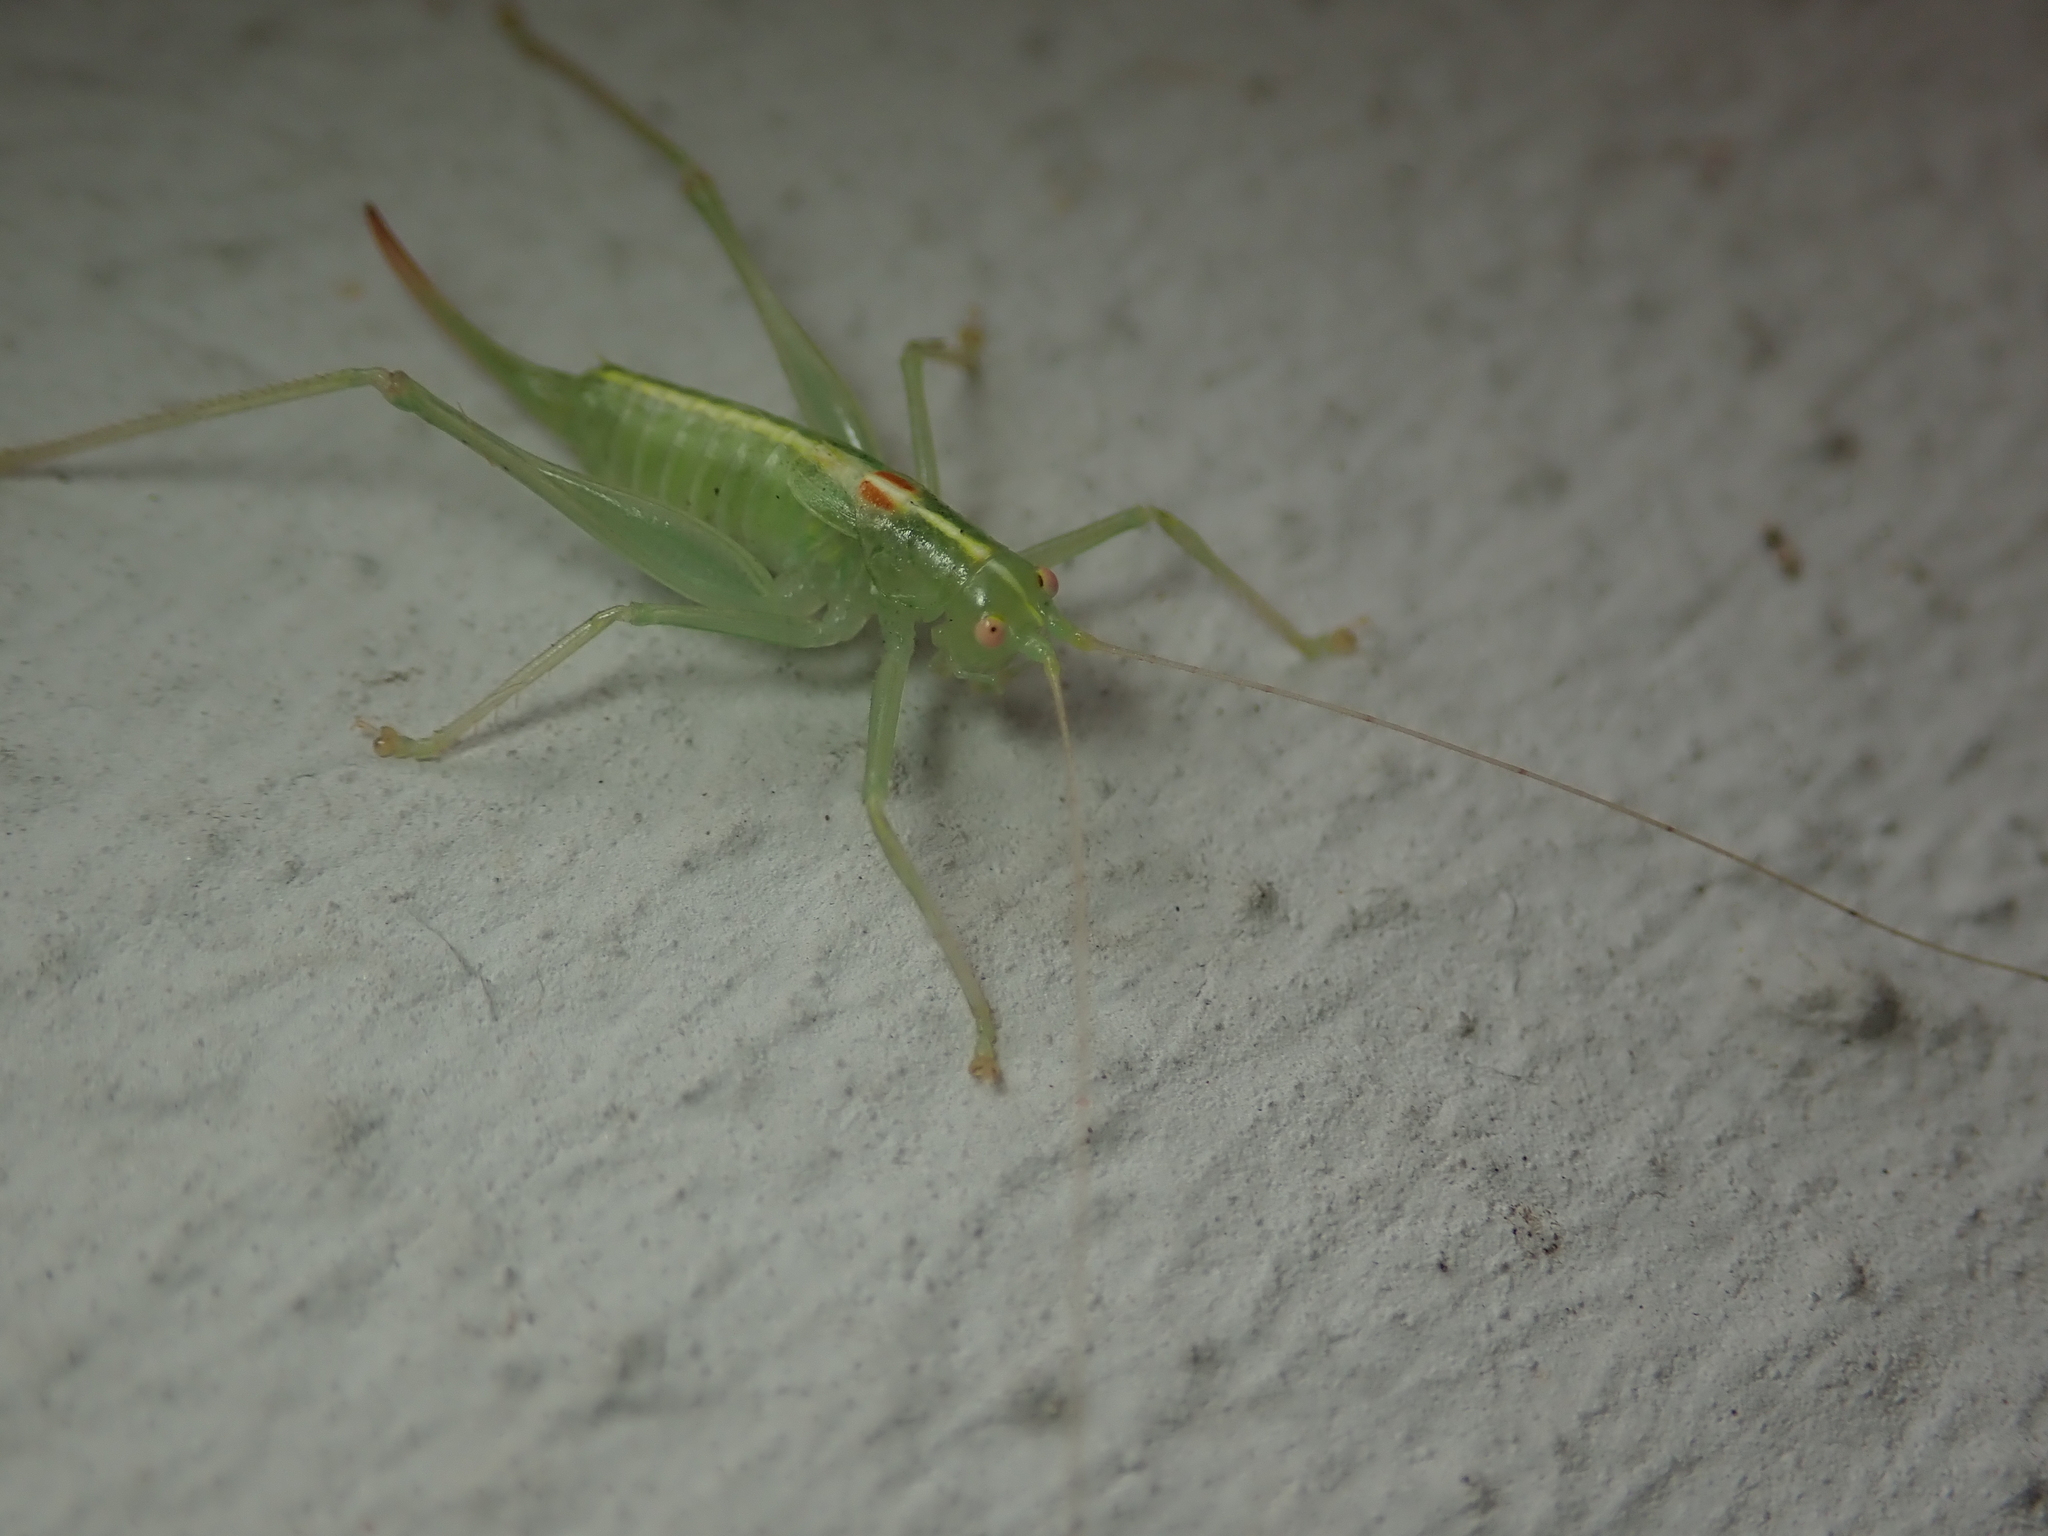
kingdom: Animalia
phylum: Arthropoda
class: Insecta
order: Orthoptera
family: Tettigoniidae
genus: Meconema
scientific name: Meconema meridionale
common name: Southern oak bush-cricket
